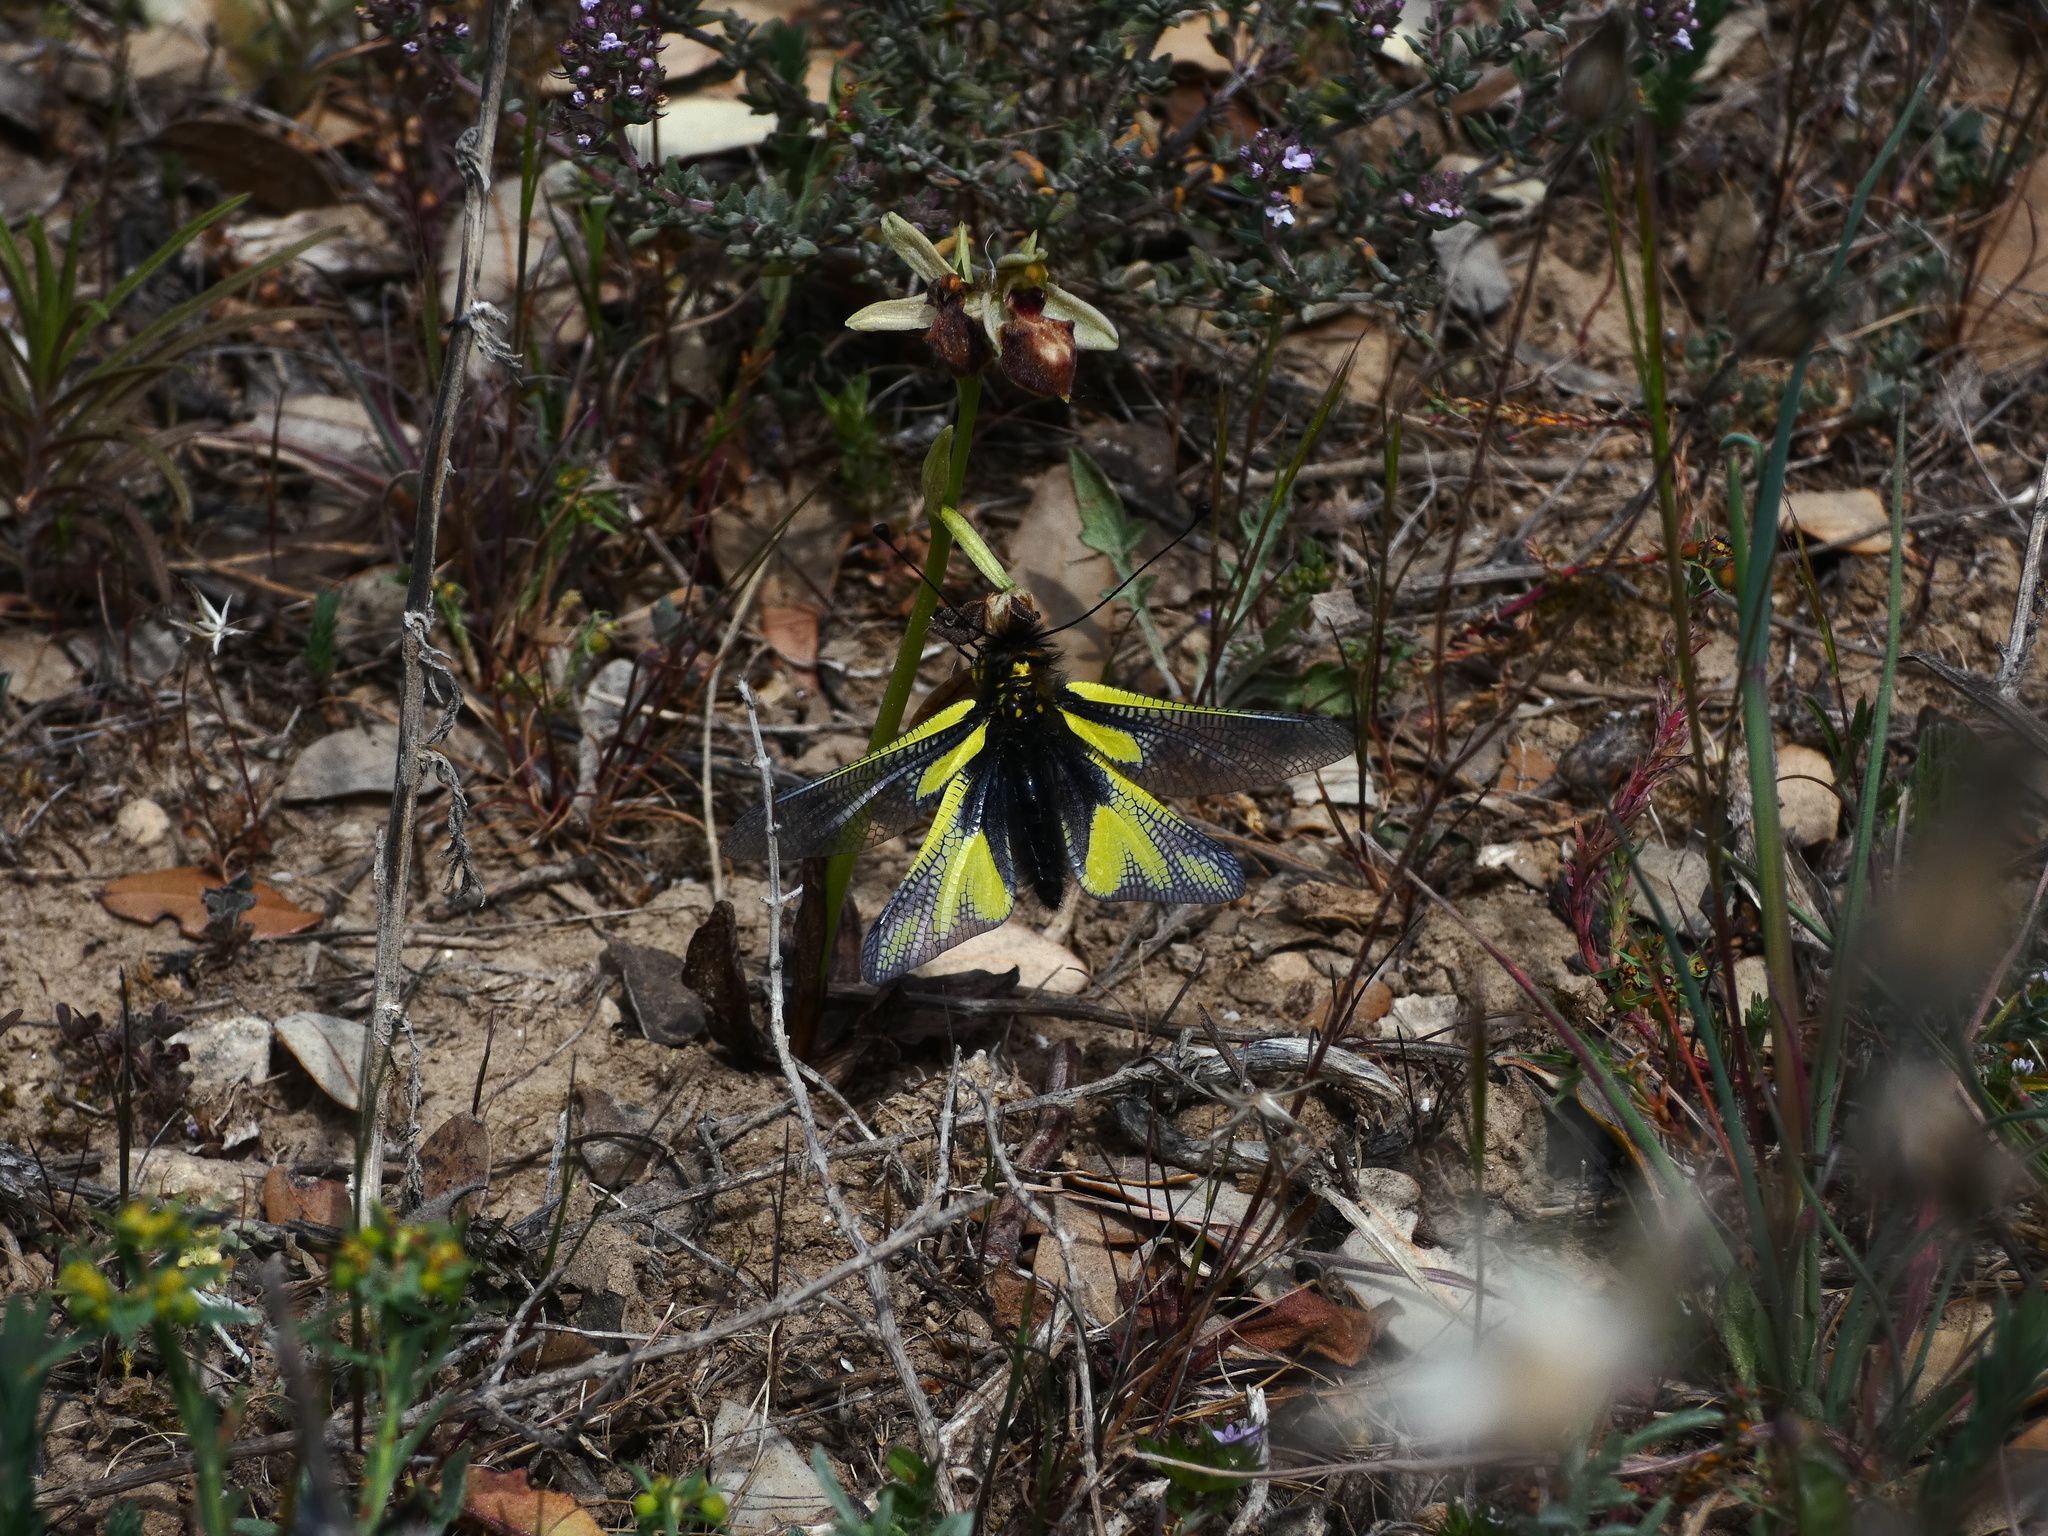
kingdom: Animalia
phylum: Arthropoda
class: Insecta
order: Neuroptera
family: Ascalaphidae
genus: Libelloides
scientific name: Libelloides coccajus
